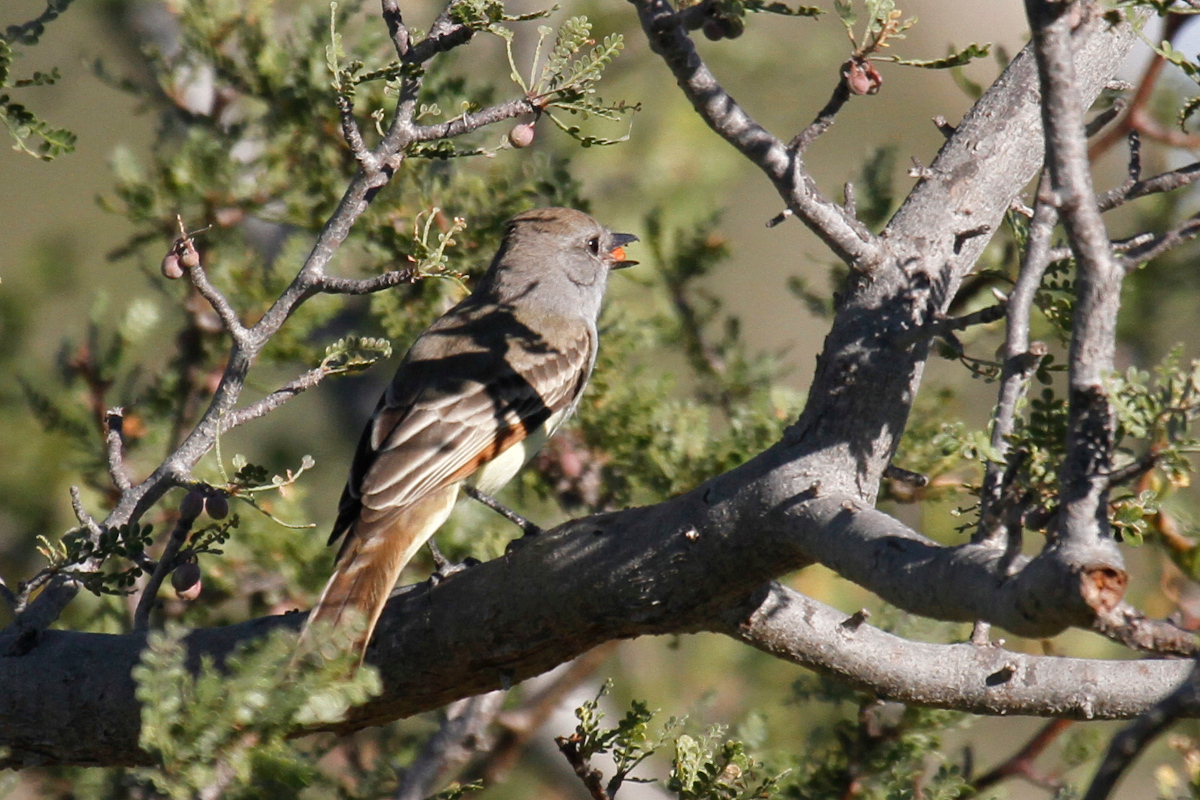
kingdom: Animalia
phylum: Chordata
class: Aves
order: Passeriformes
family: Tyrannidae
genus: Myiarchus
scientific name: Myiarchus cinerascens
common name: Ash-throated flycatcher
